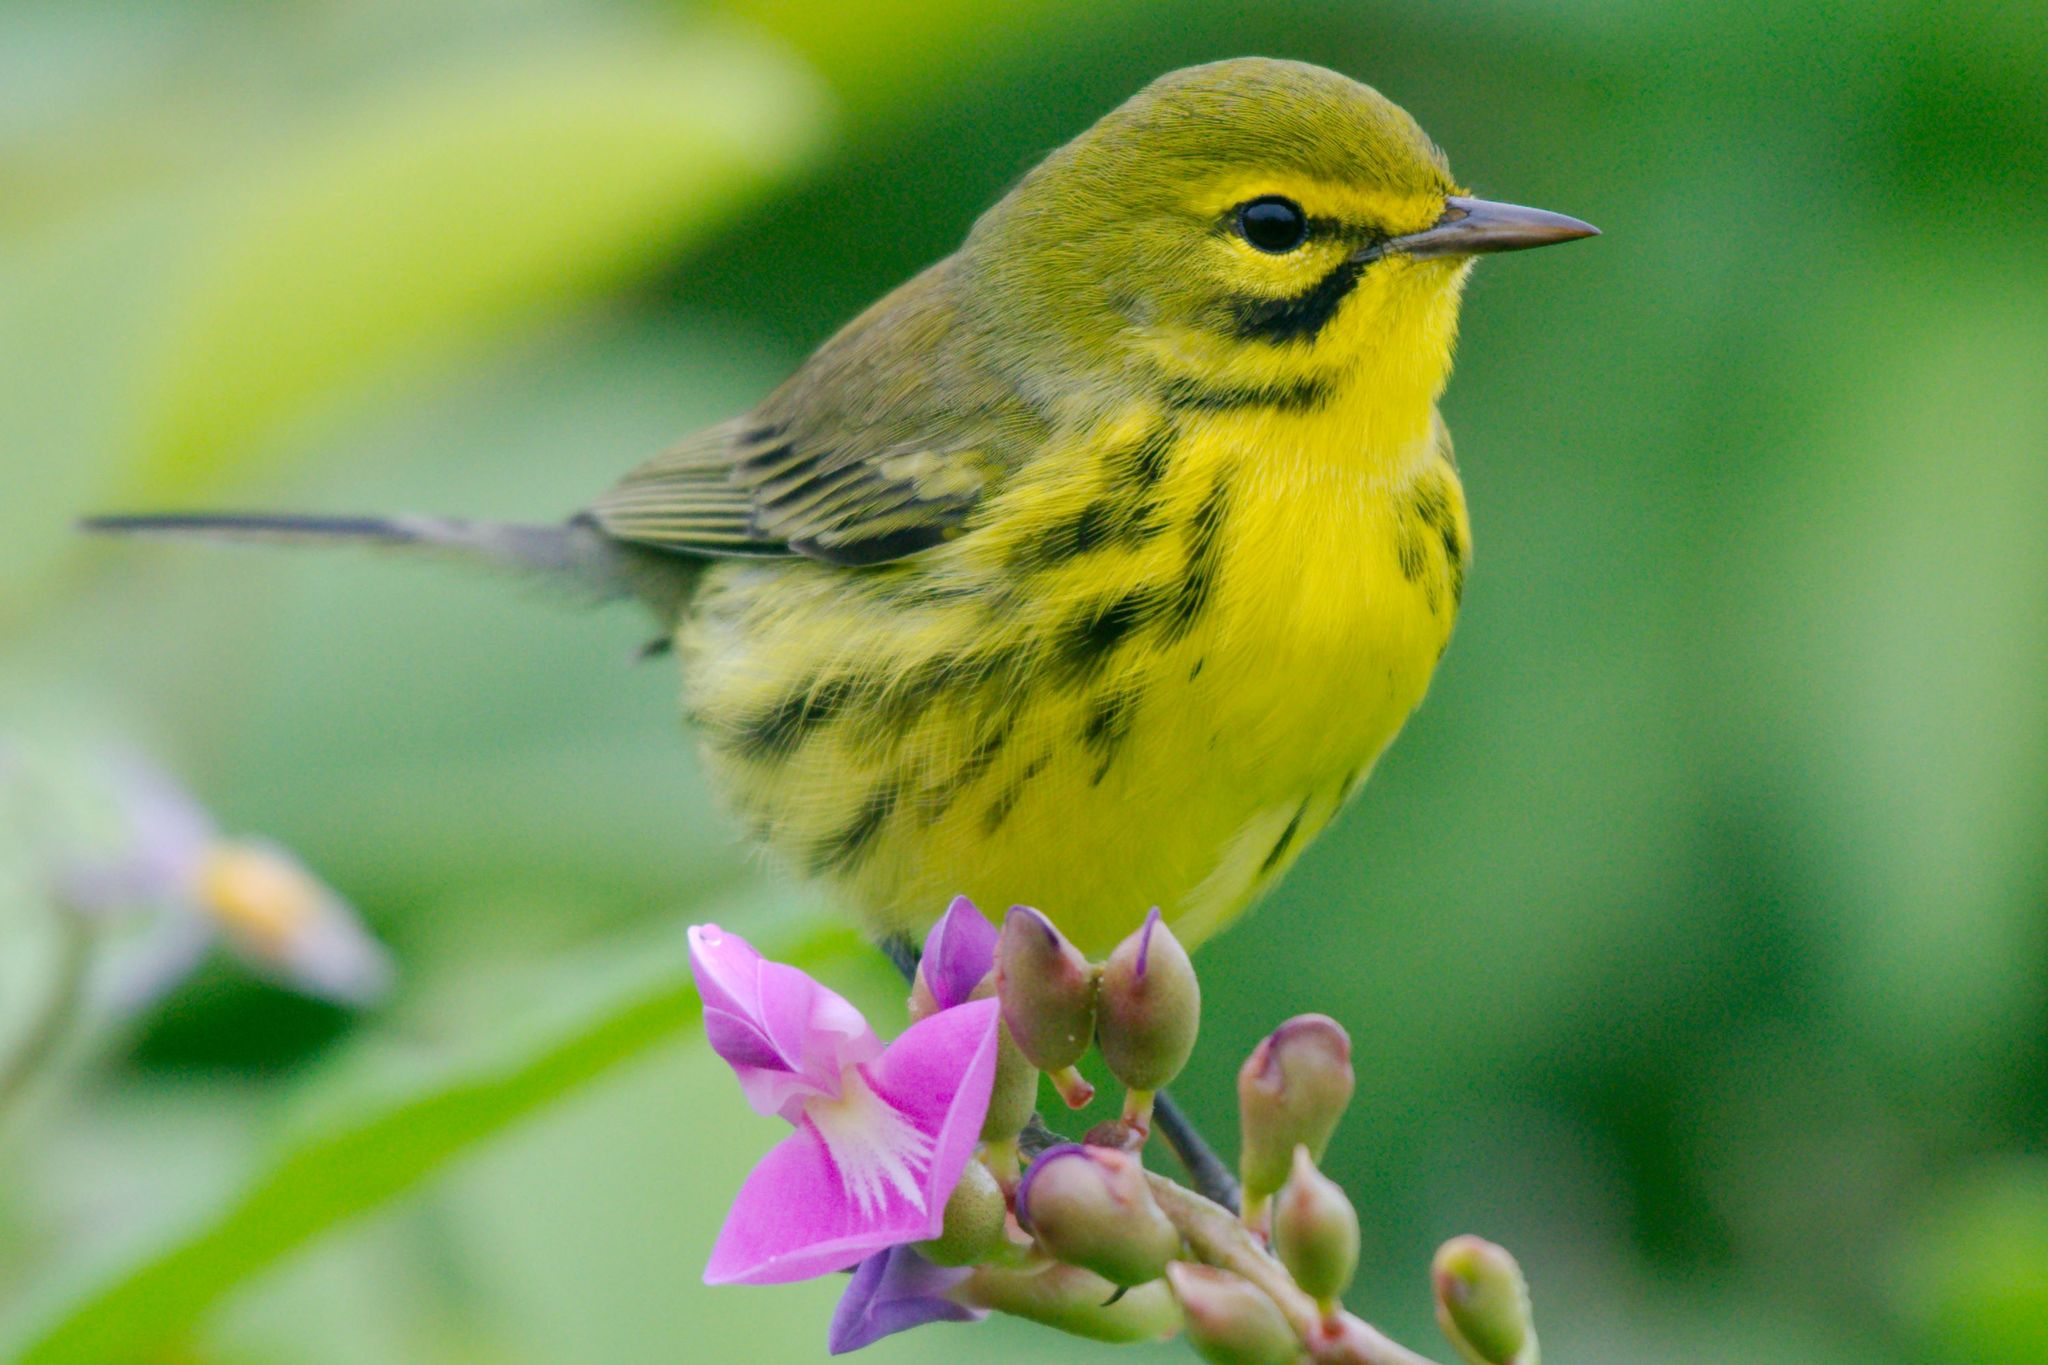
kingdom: Animalia
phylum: Chordata
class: Aves
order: Passeriformes
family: Parulidae
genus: Setophaga
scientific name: Setophaga discolor
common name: Prairie warbler
